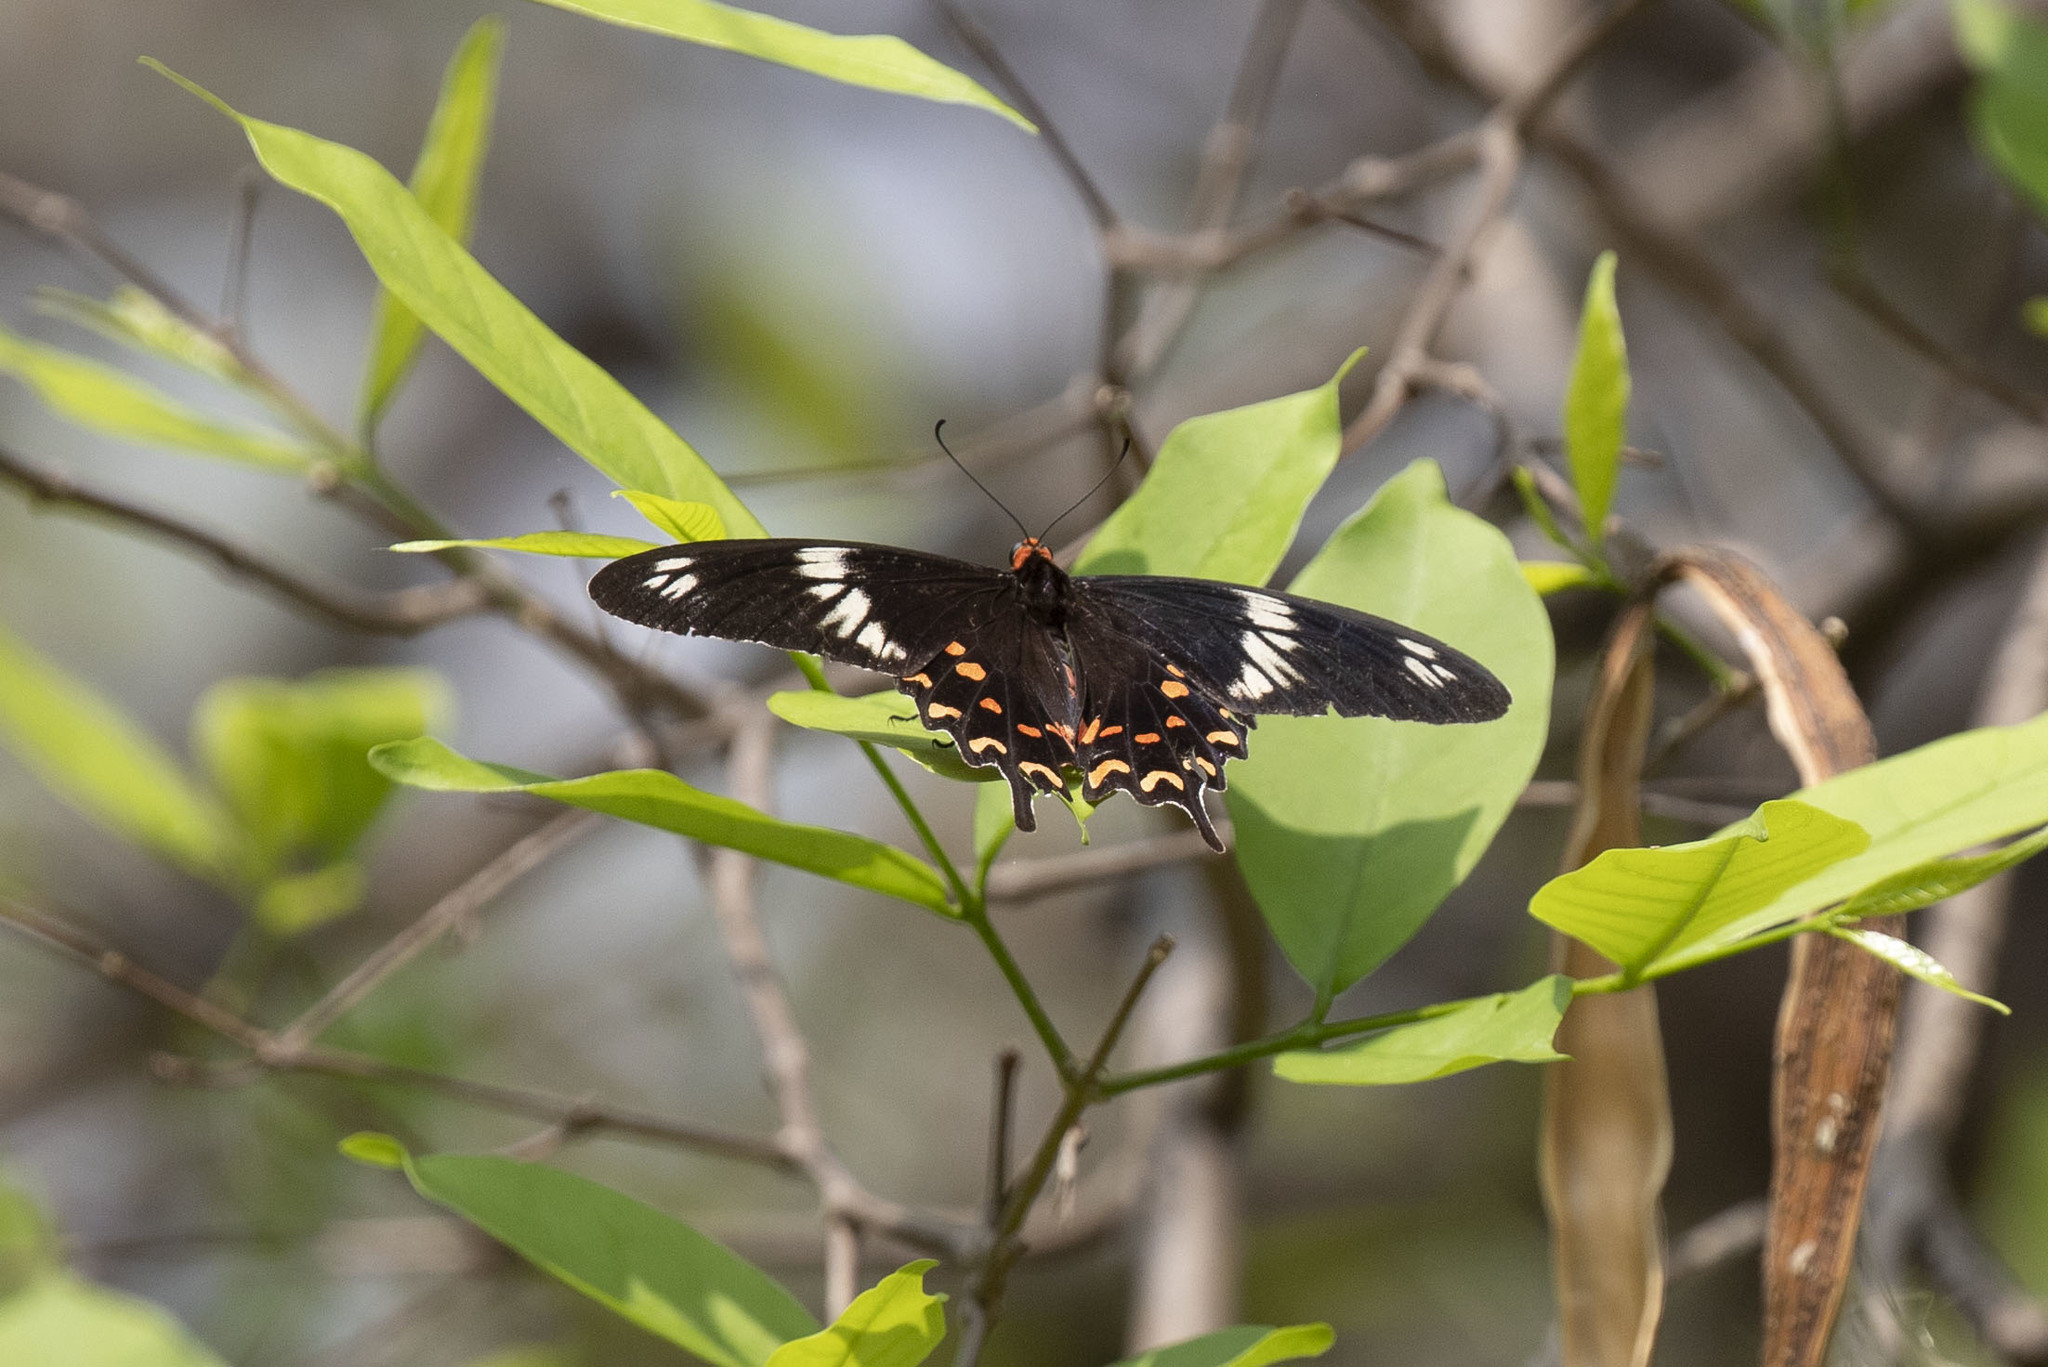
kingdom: Animalia
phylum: Arthropoda
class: Insecta
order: Lepidoptera
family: Papilionidae
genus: Pachliopta
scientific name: Pachliopta hector
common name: Crimson rose
